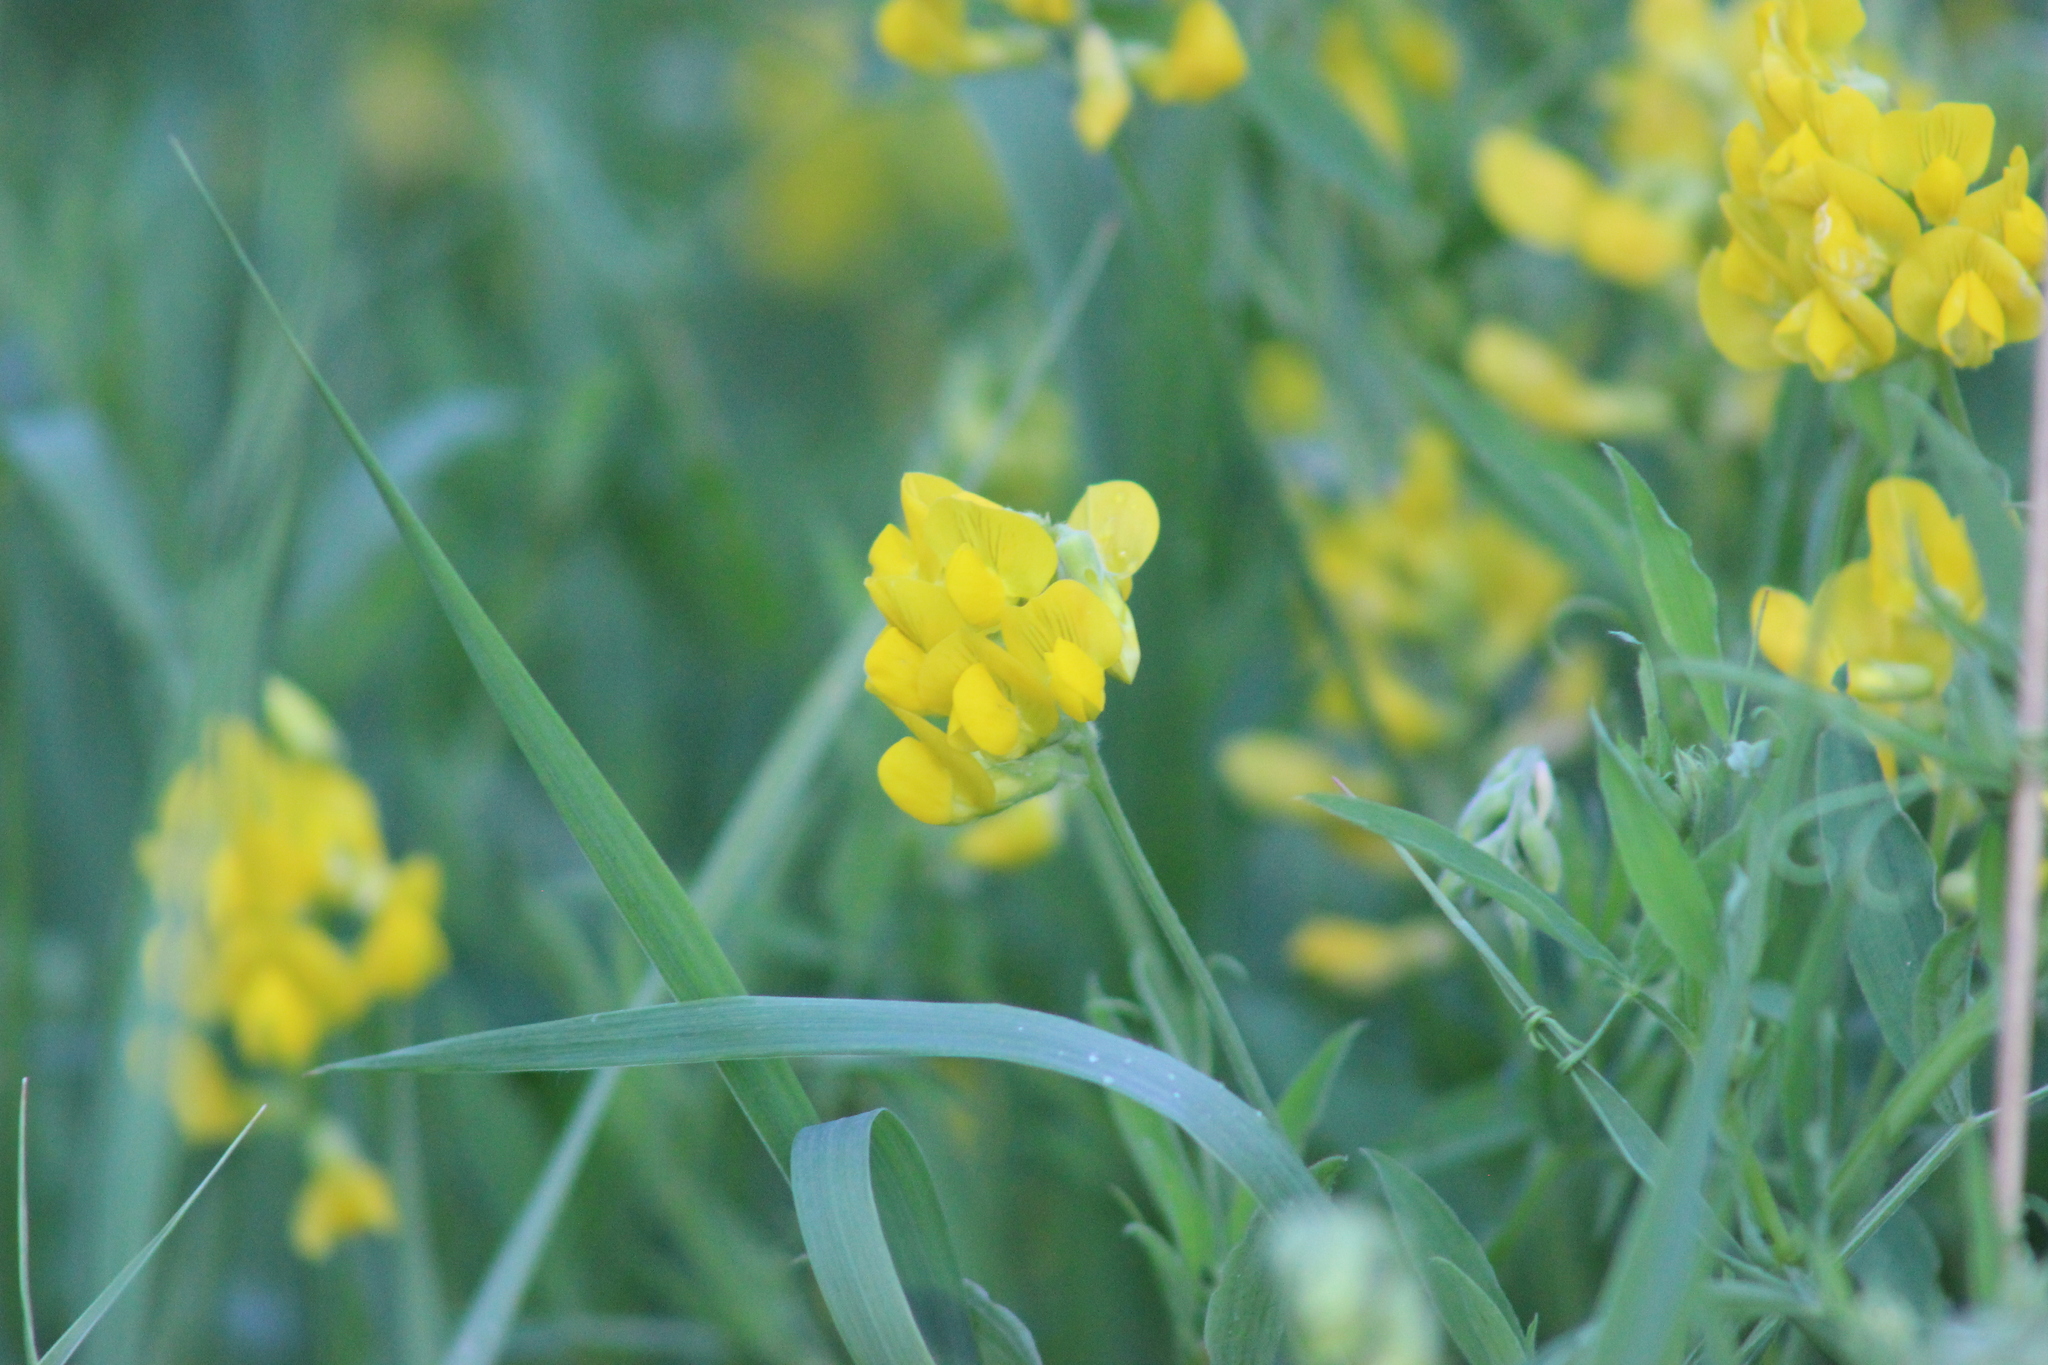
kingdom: Plantae
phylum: Tracheophyta
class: Magnoliopsida
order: Fabales
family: Fabaceae
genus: Lathyrus
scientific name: Lathyrus pratensis
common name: Meadow vetchling
